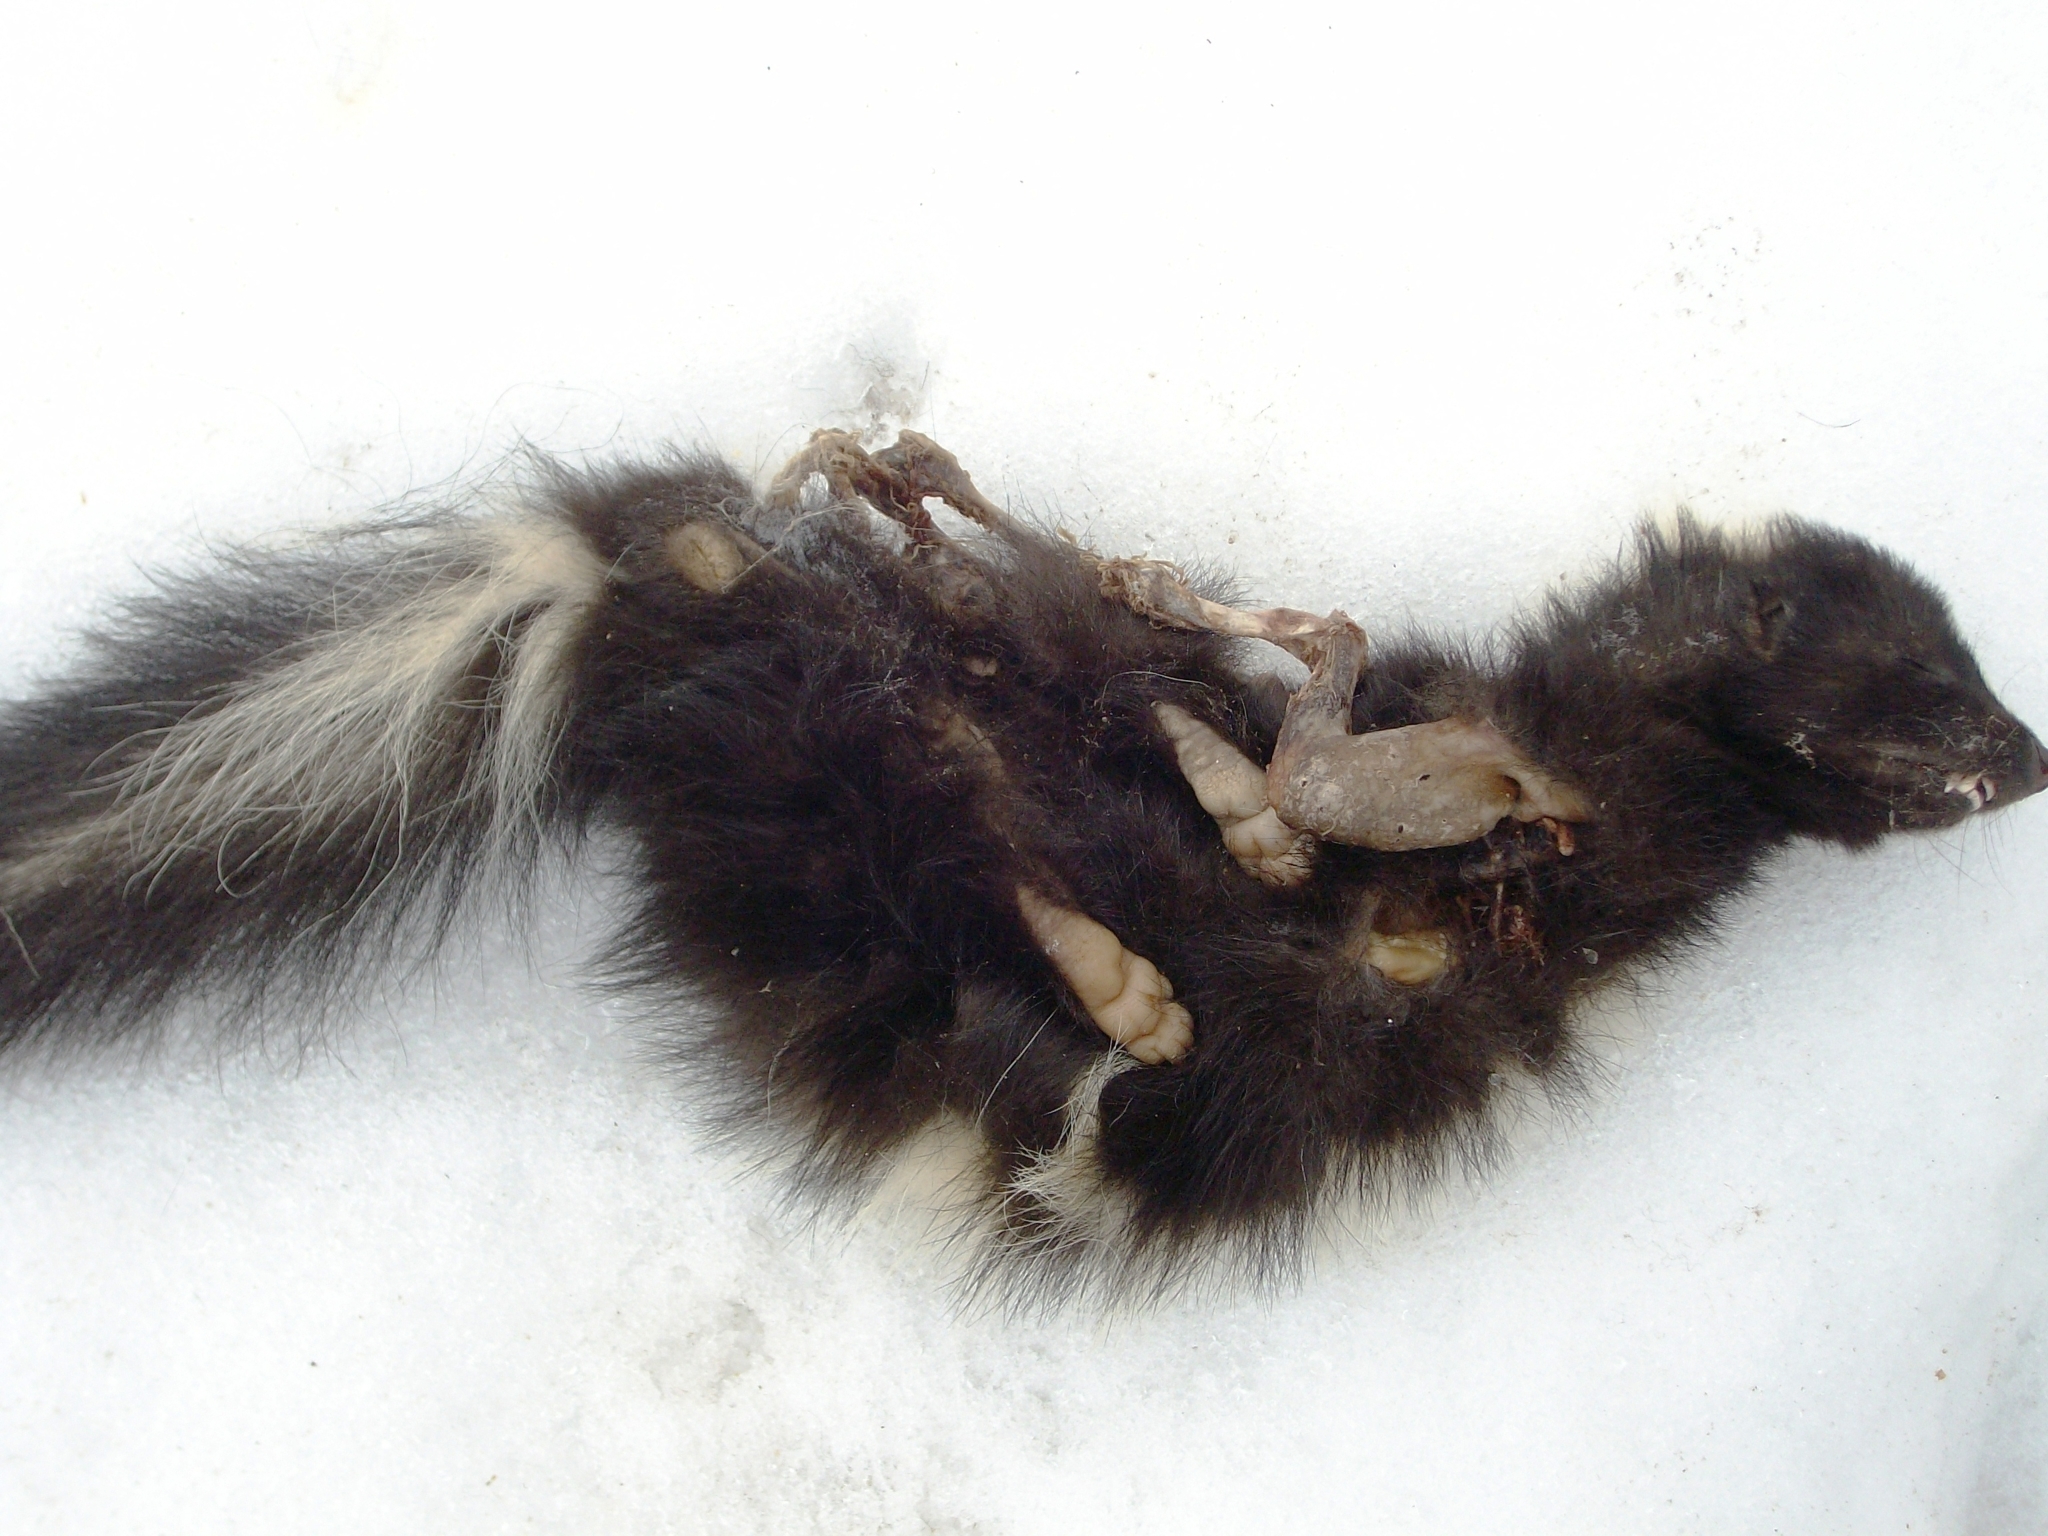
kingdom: Animalia
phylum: Chordata
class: Mammalia
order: Carnivora
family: Mephitidae
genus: Mephitis
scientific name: Mephitis mephitis
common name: Striped skunk
